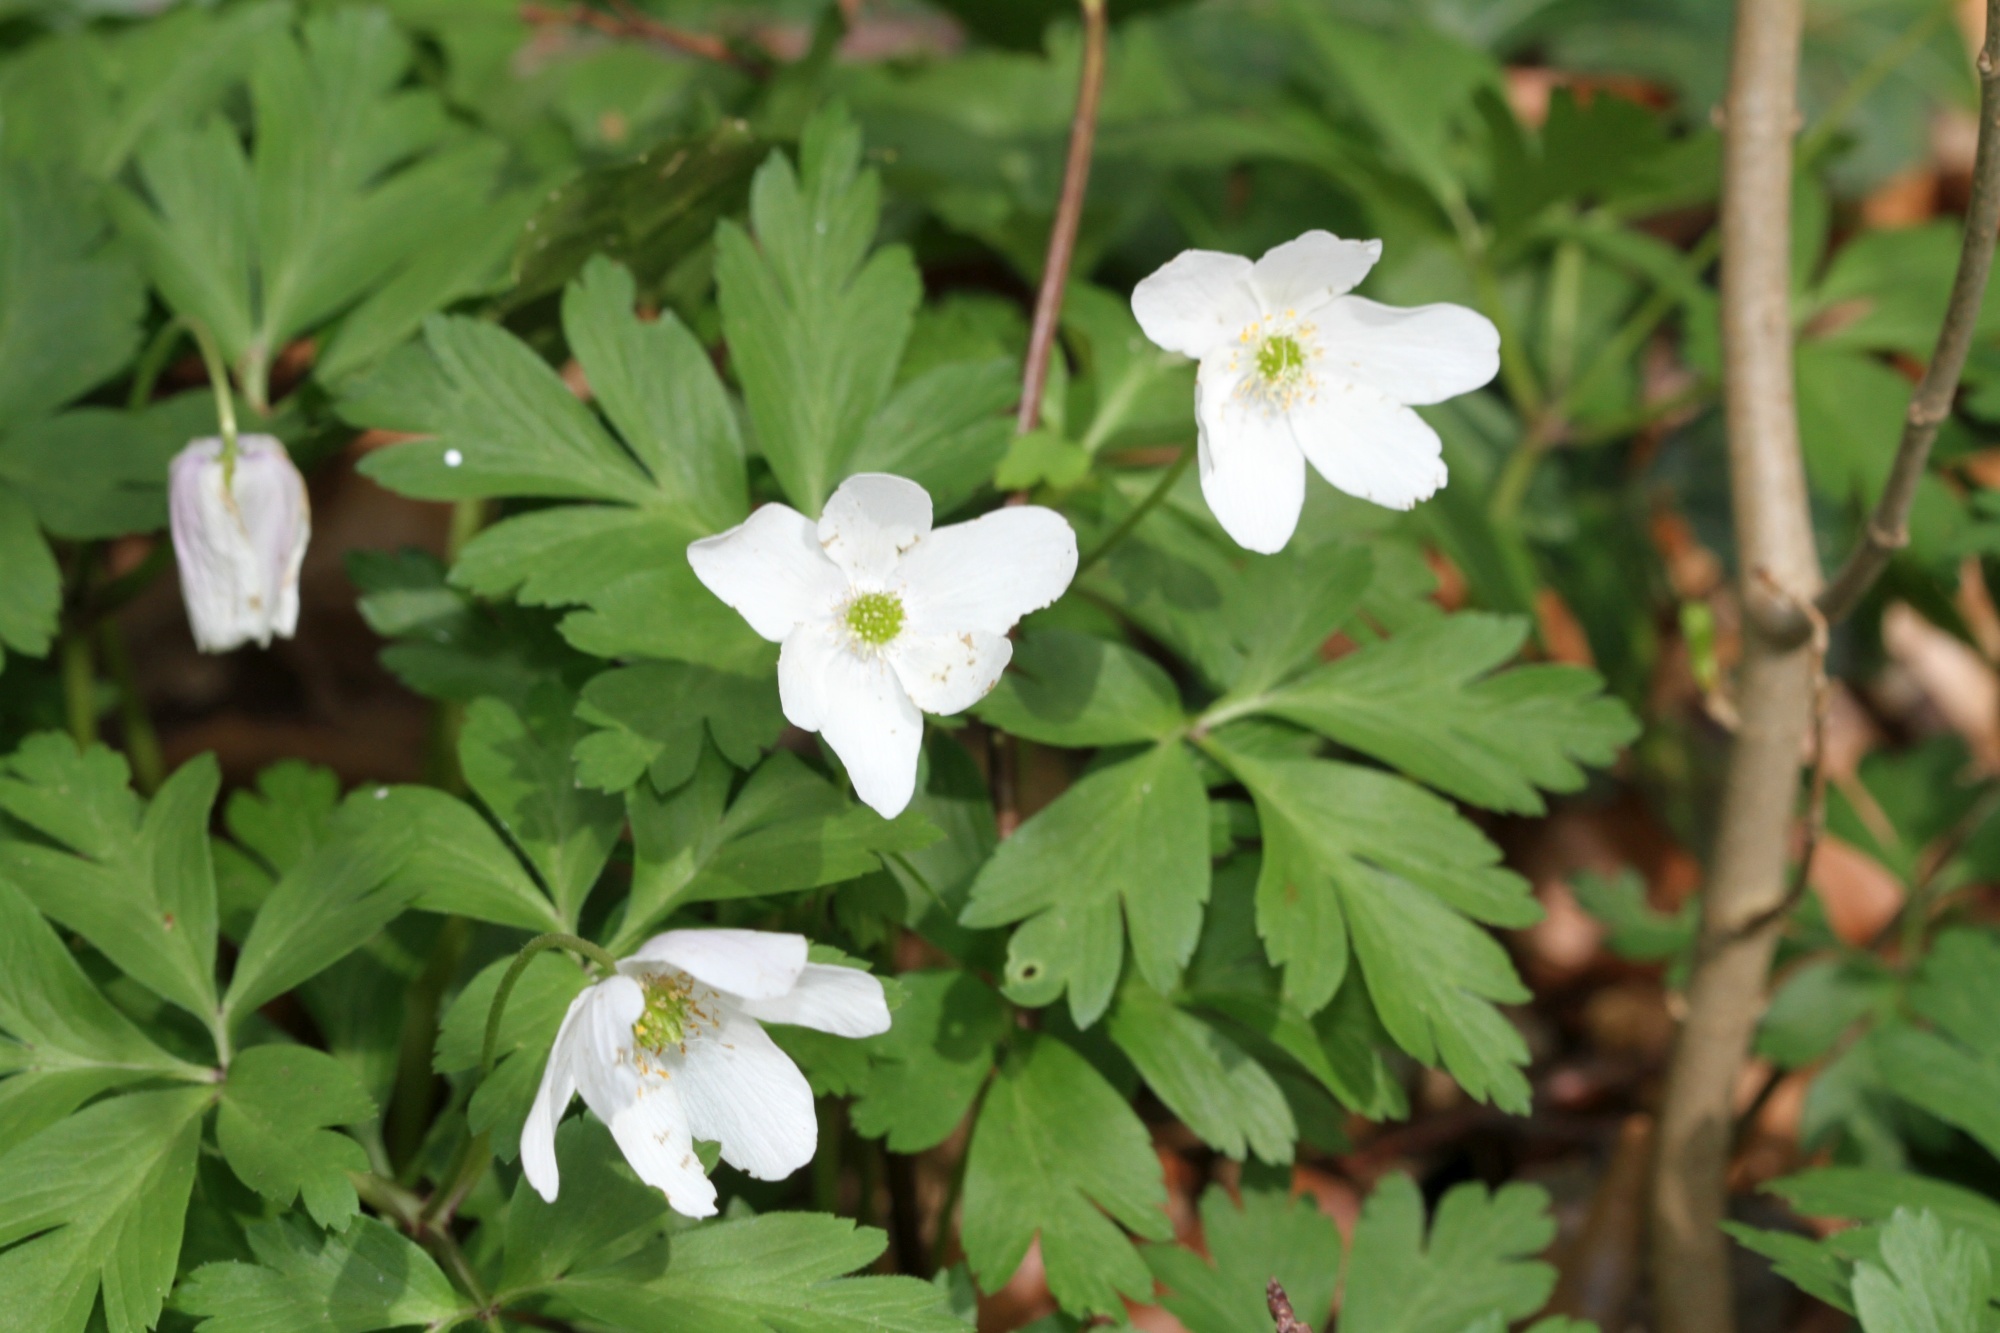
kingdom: Plantae
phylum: Tracheophyta
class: Magnoliopsida
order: Ranunculales
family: Ranunculaceae
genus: Anemone
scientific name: Anemone nemorosa
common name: Wood anemone
